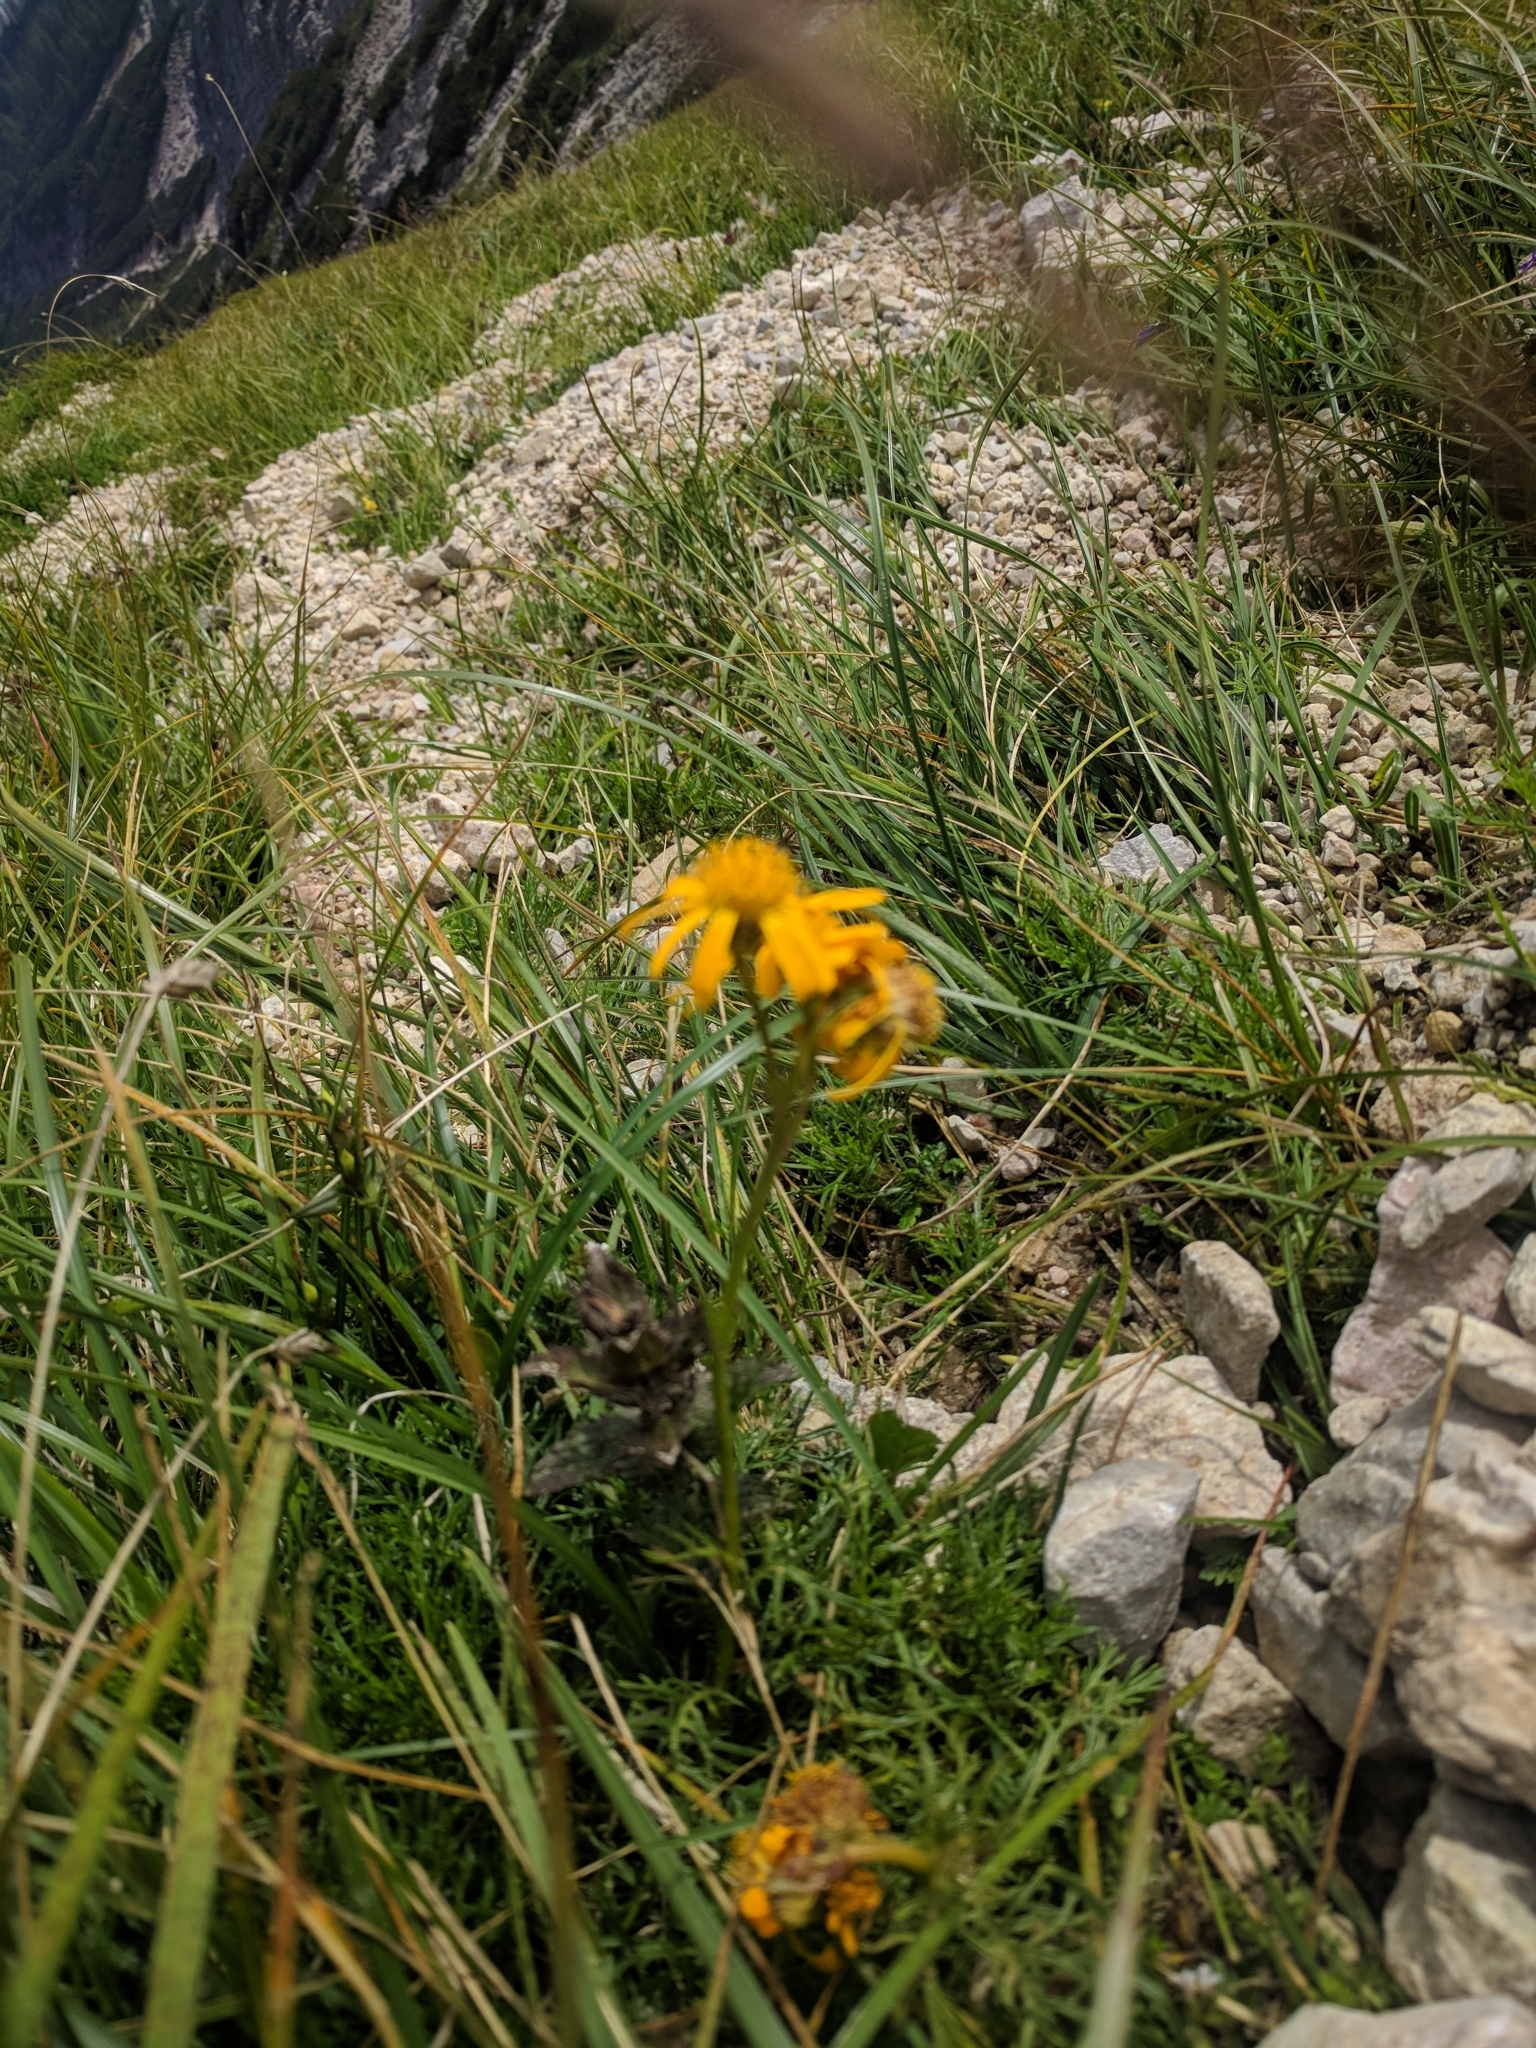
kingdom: Plantae
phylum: Tracheophyta
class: Magnoliopsida
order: Asterales
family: Asteraceae
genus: Jacobaea
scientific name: Jacobaea abrotanifolia
